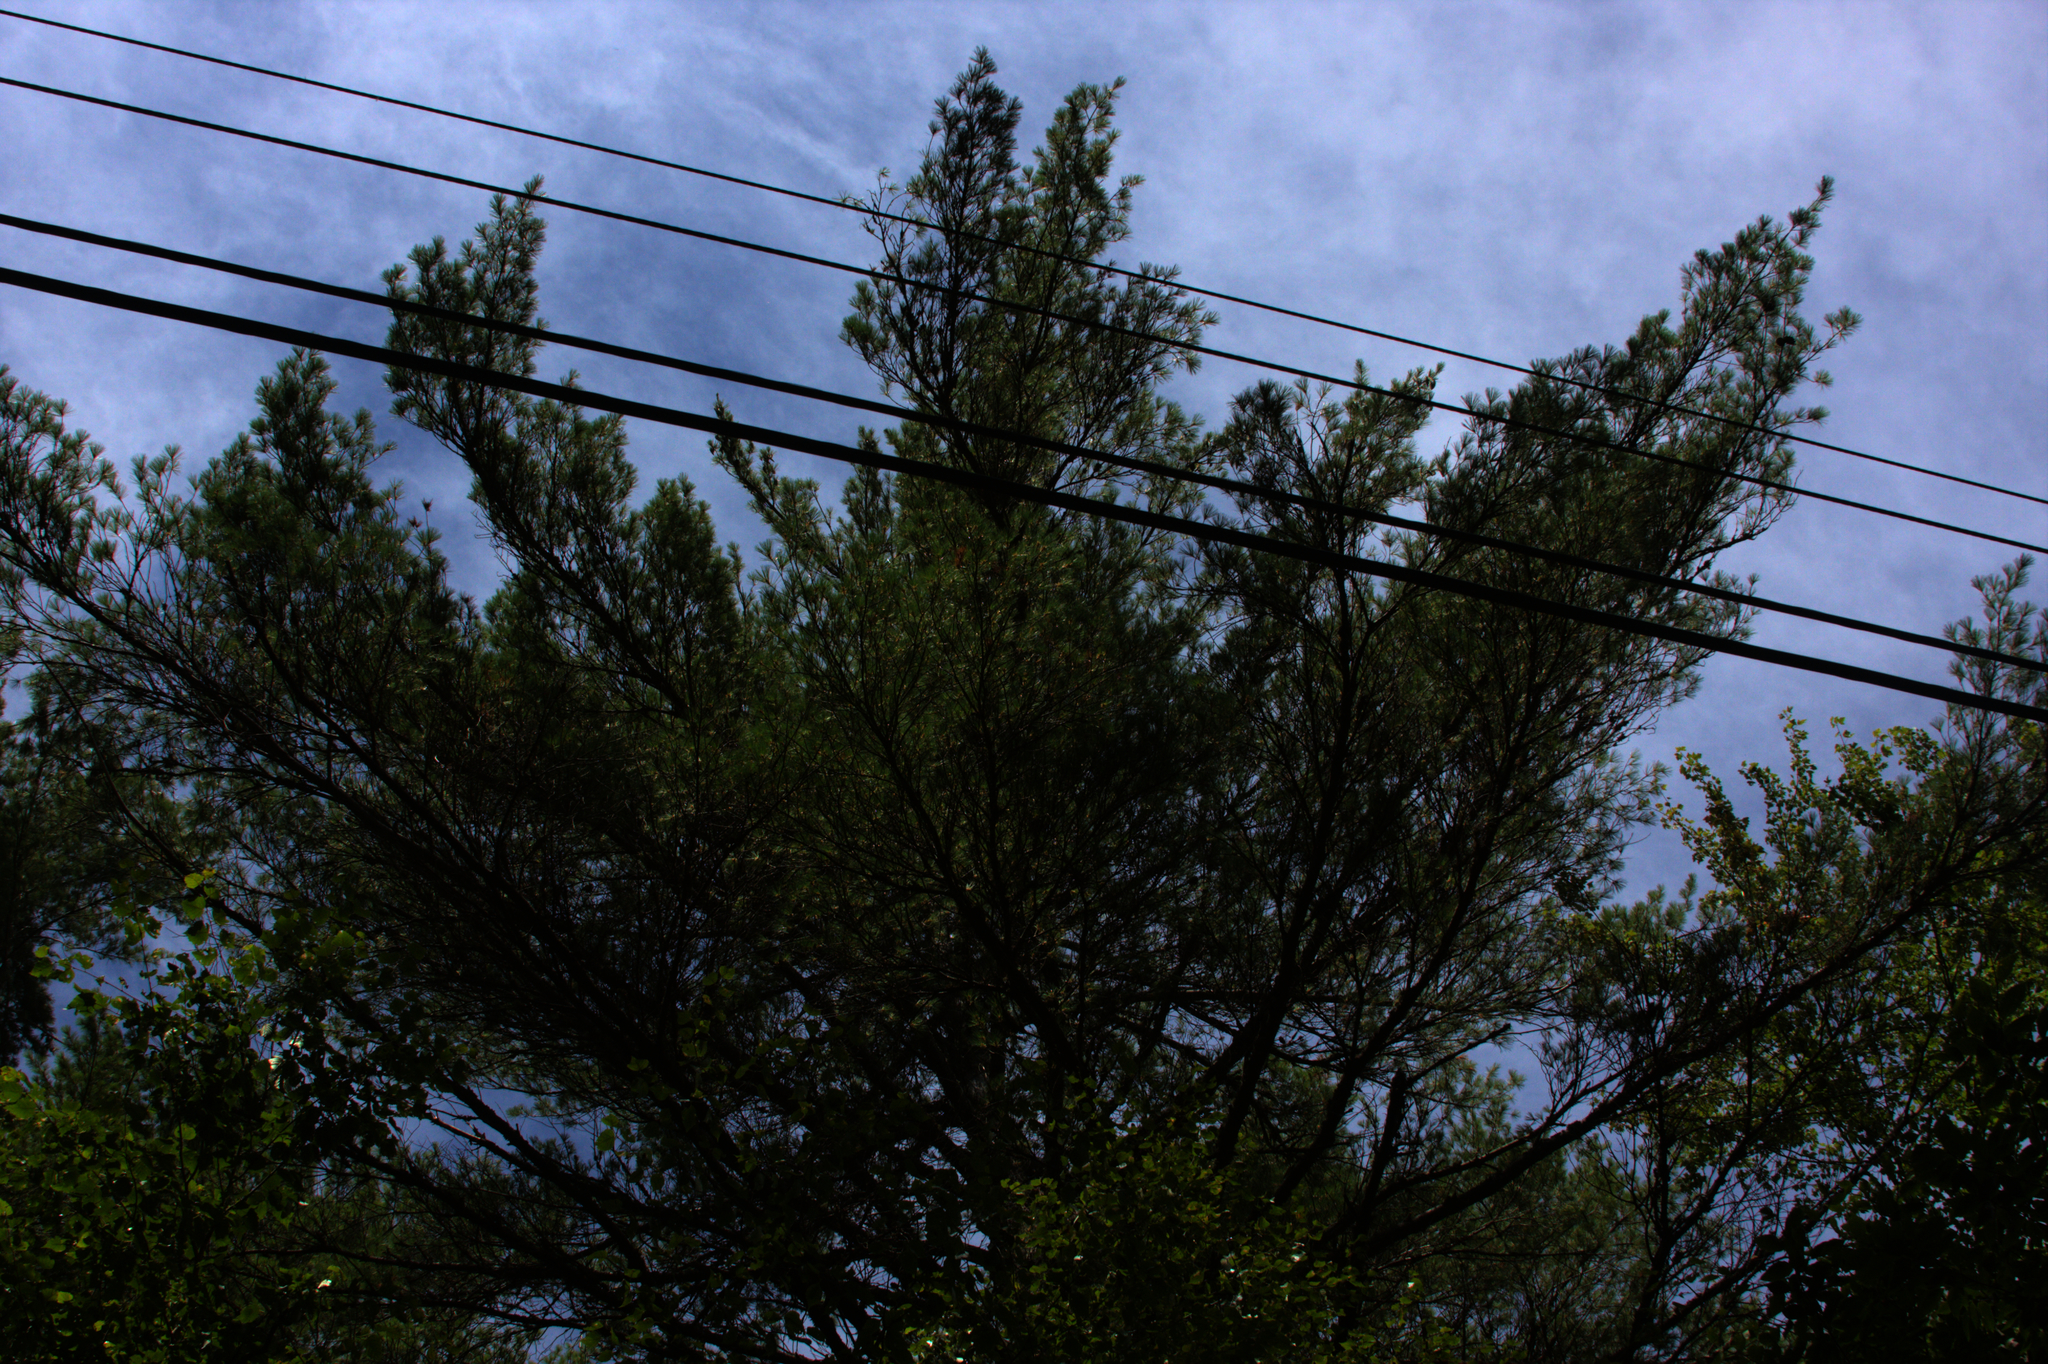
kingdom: Plantae
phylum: Tracheophyta
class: Pinopsida
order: Pinales
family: Pinaceae
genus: Pinus
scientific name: Pinus strobus
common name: Weymouth pine
